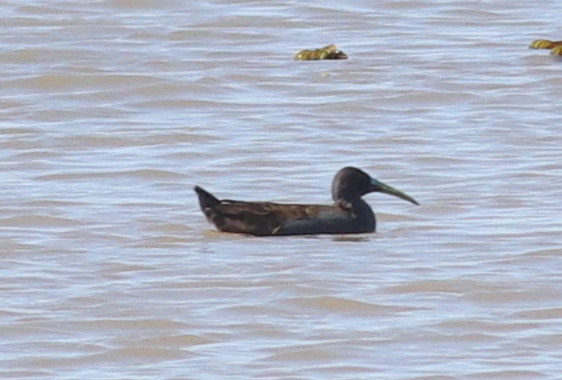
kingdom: Animalia
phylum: Chordata
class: Aves
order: Gruiformes
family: Rallidae
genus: Pardirallus
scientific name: Pardirallus sanguinolentus
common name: Plumbeous rail
